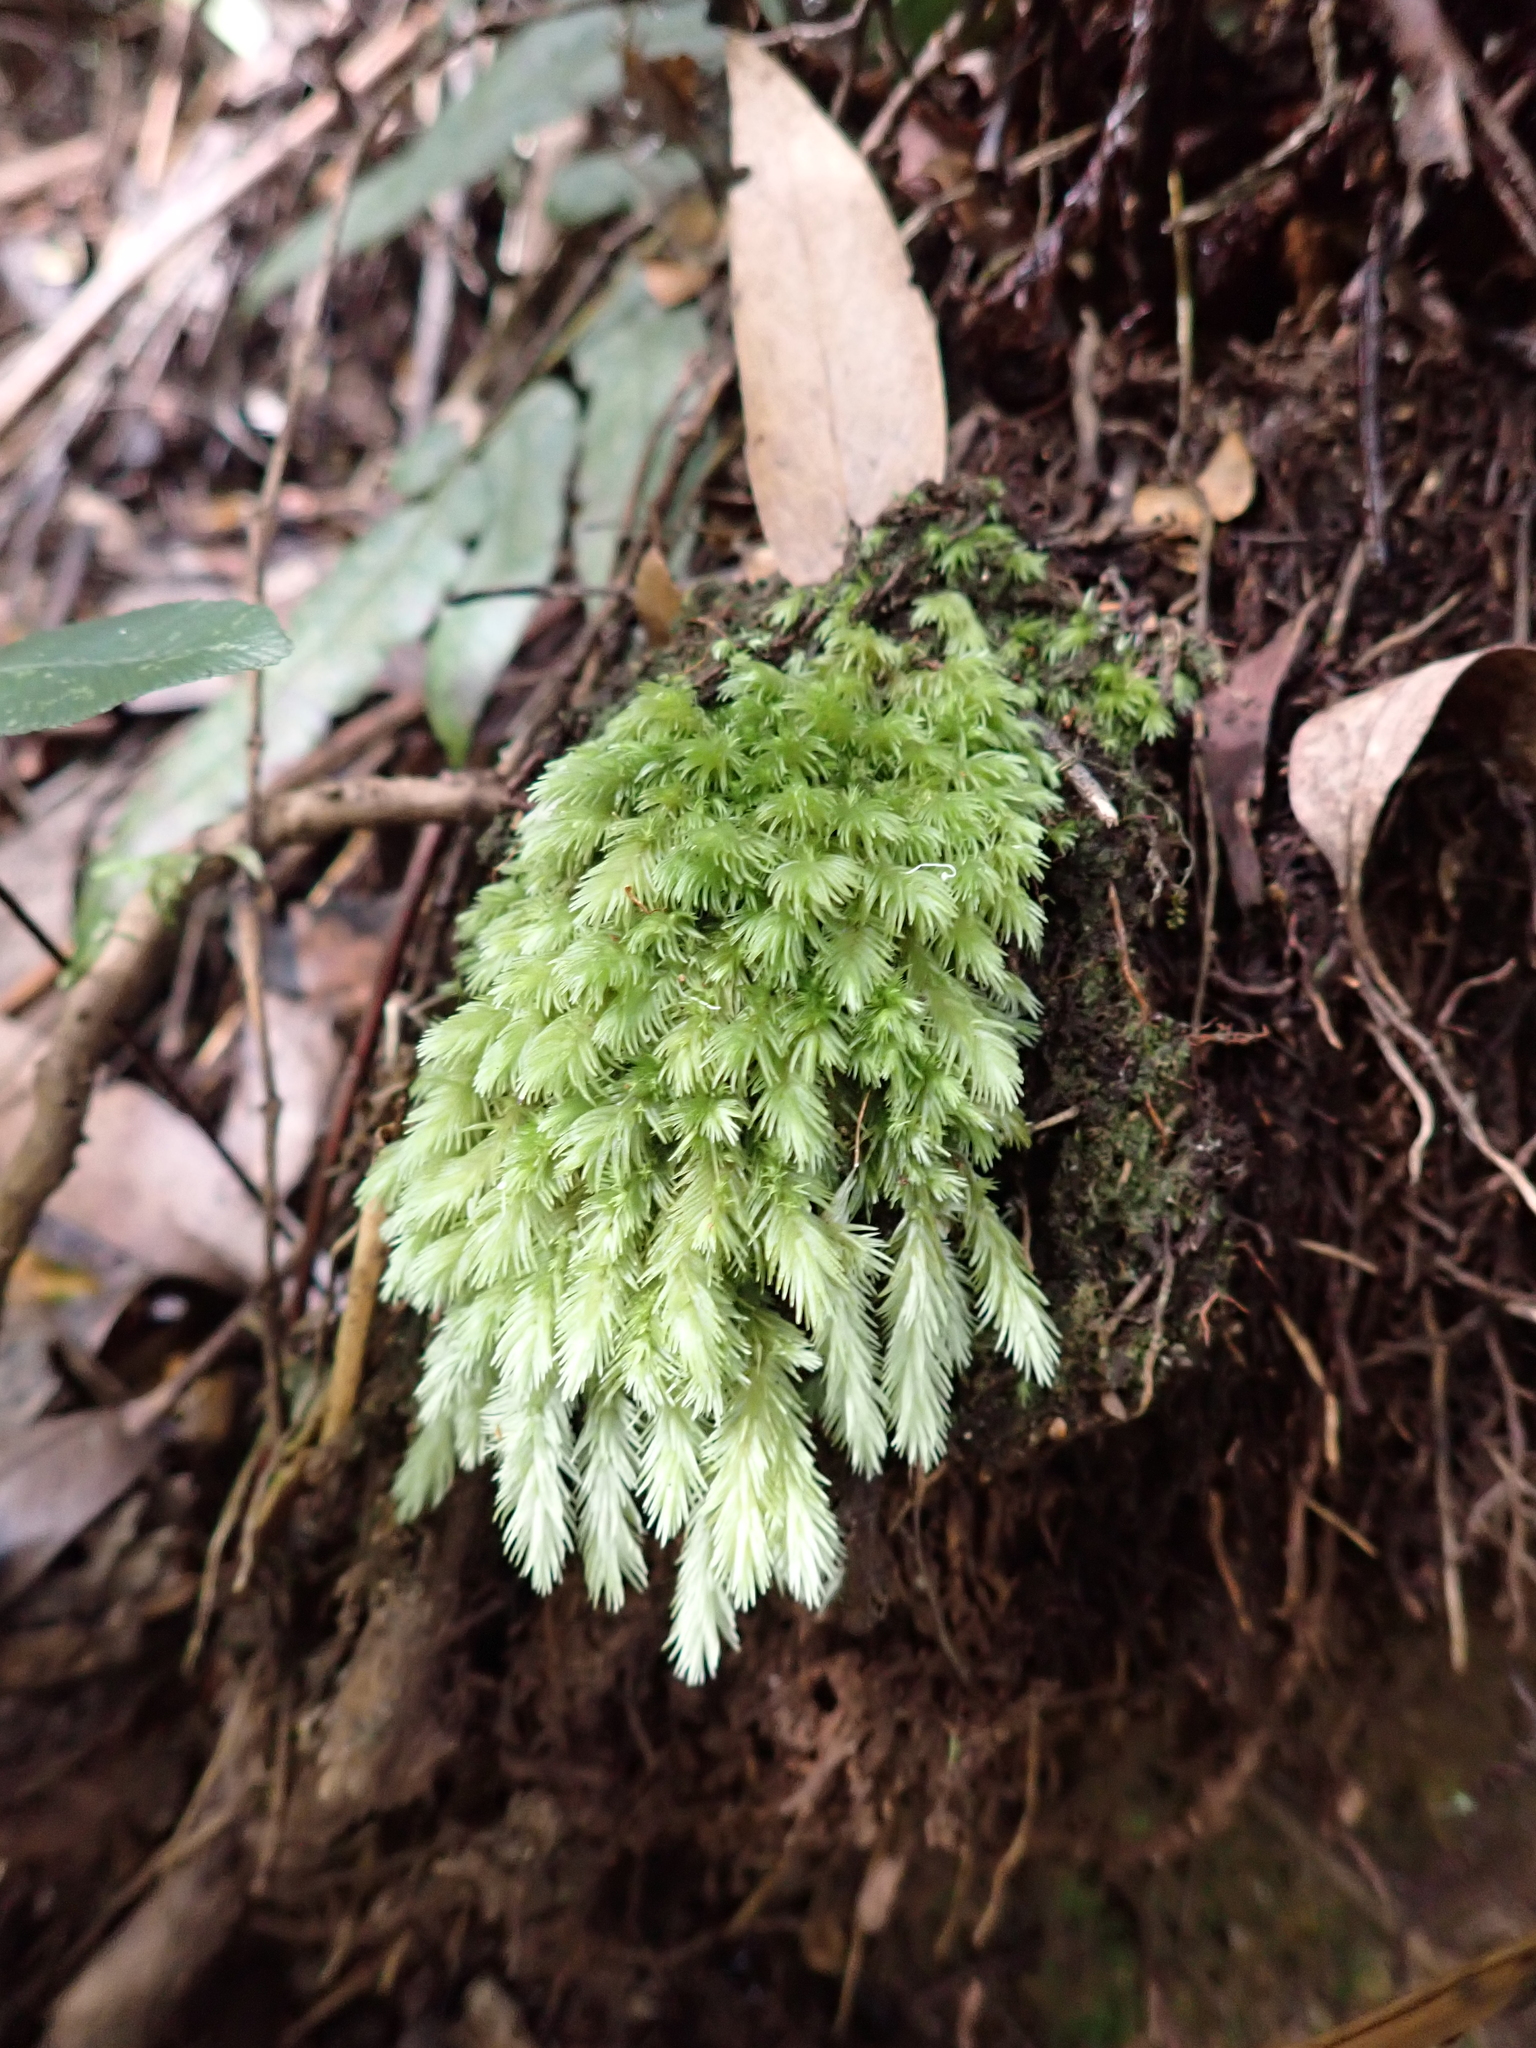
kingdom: Plantae
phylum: Bryophyta
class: Bryopsida
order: Dicranales
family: Leucobryaceae
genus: Leucobryum
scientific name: Leucobryum javense
